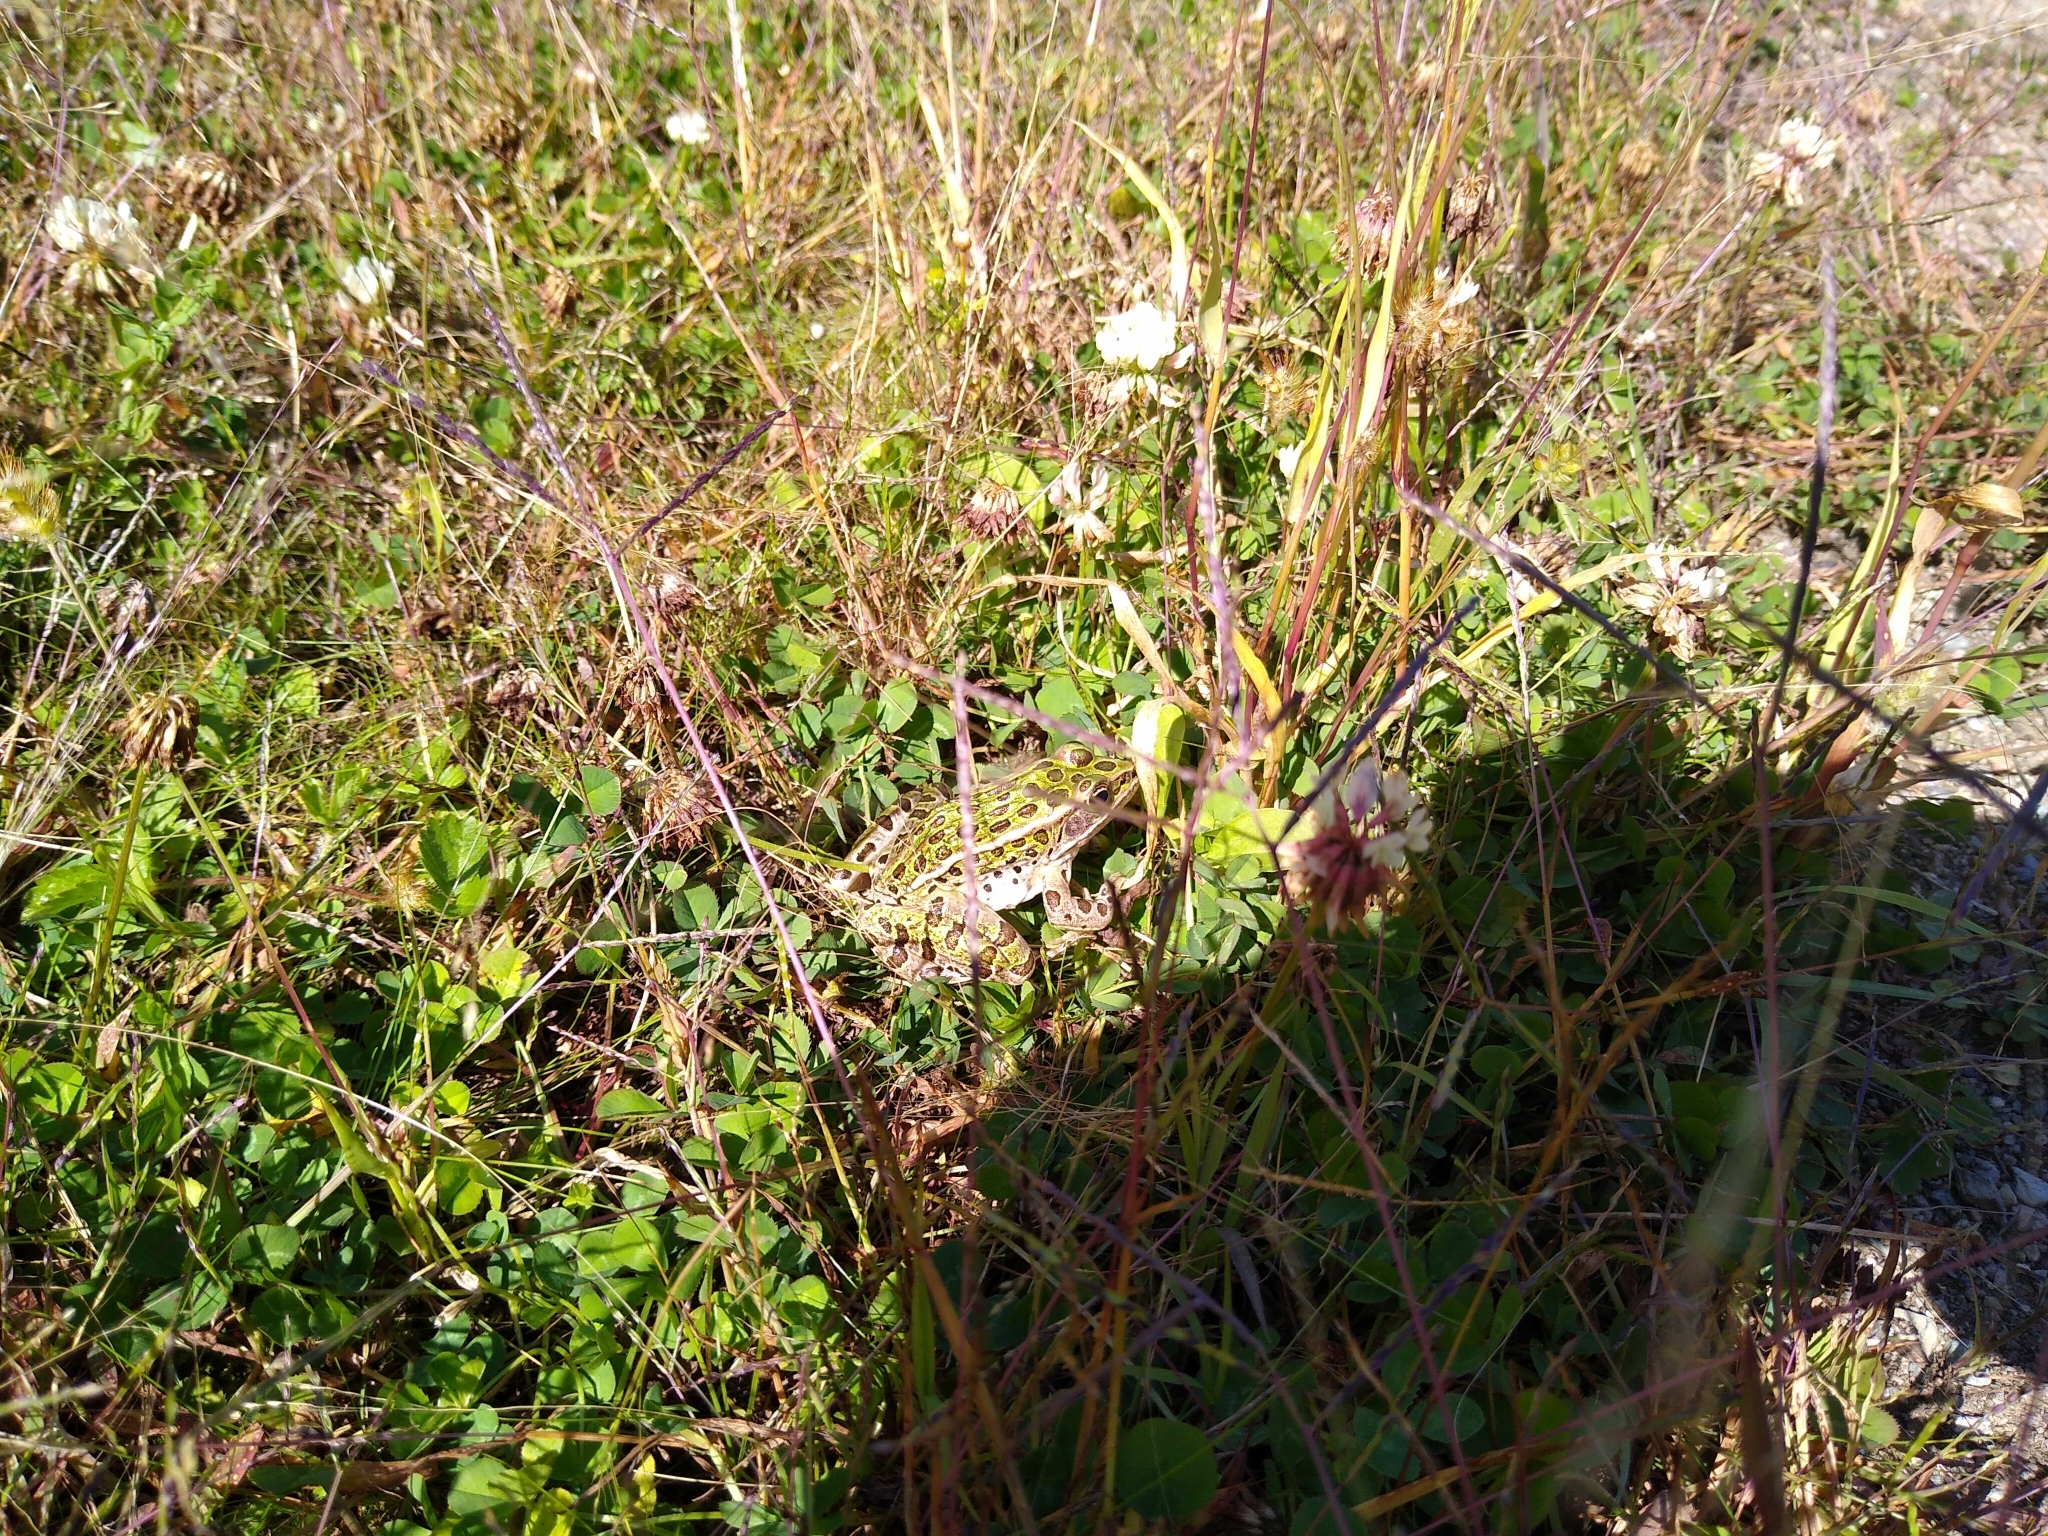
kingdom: Animalia
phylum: Chordata
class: Amphibia
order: Anura
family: Ranidae
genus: Lithobates
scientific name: Lithobates pipiens
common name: Northern leopard frog
